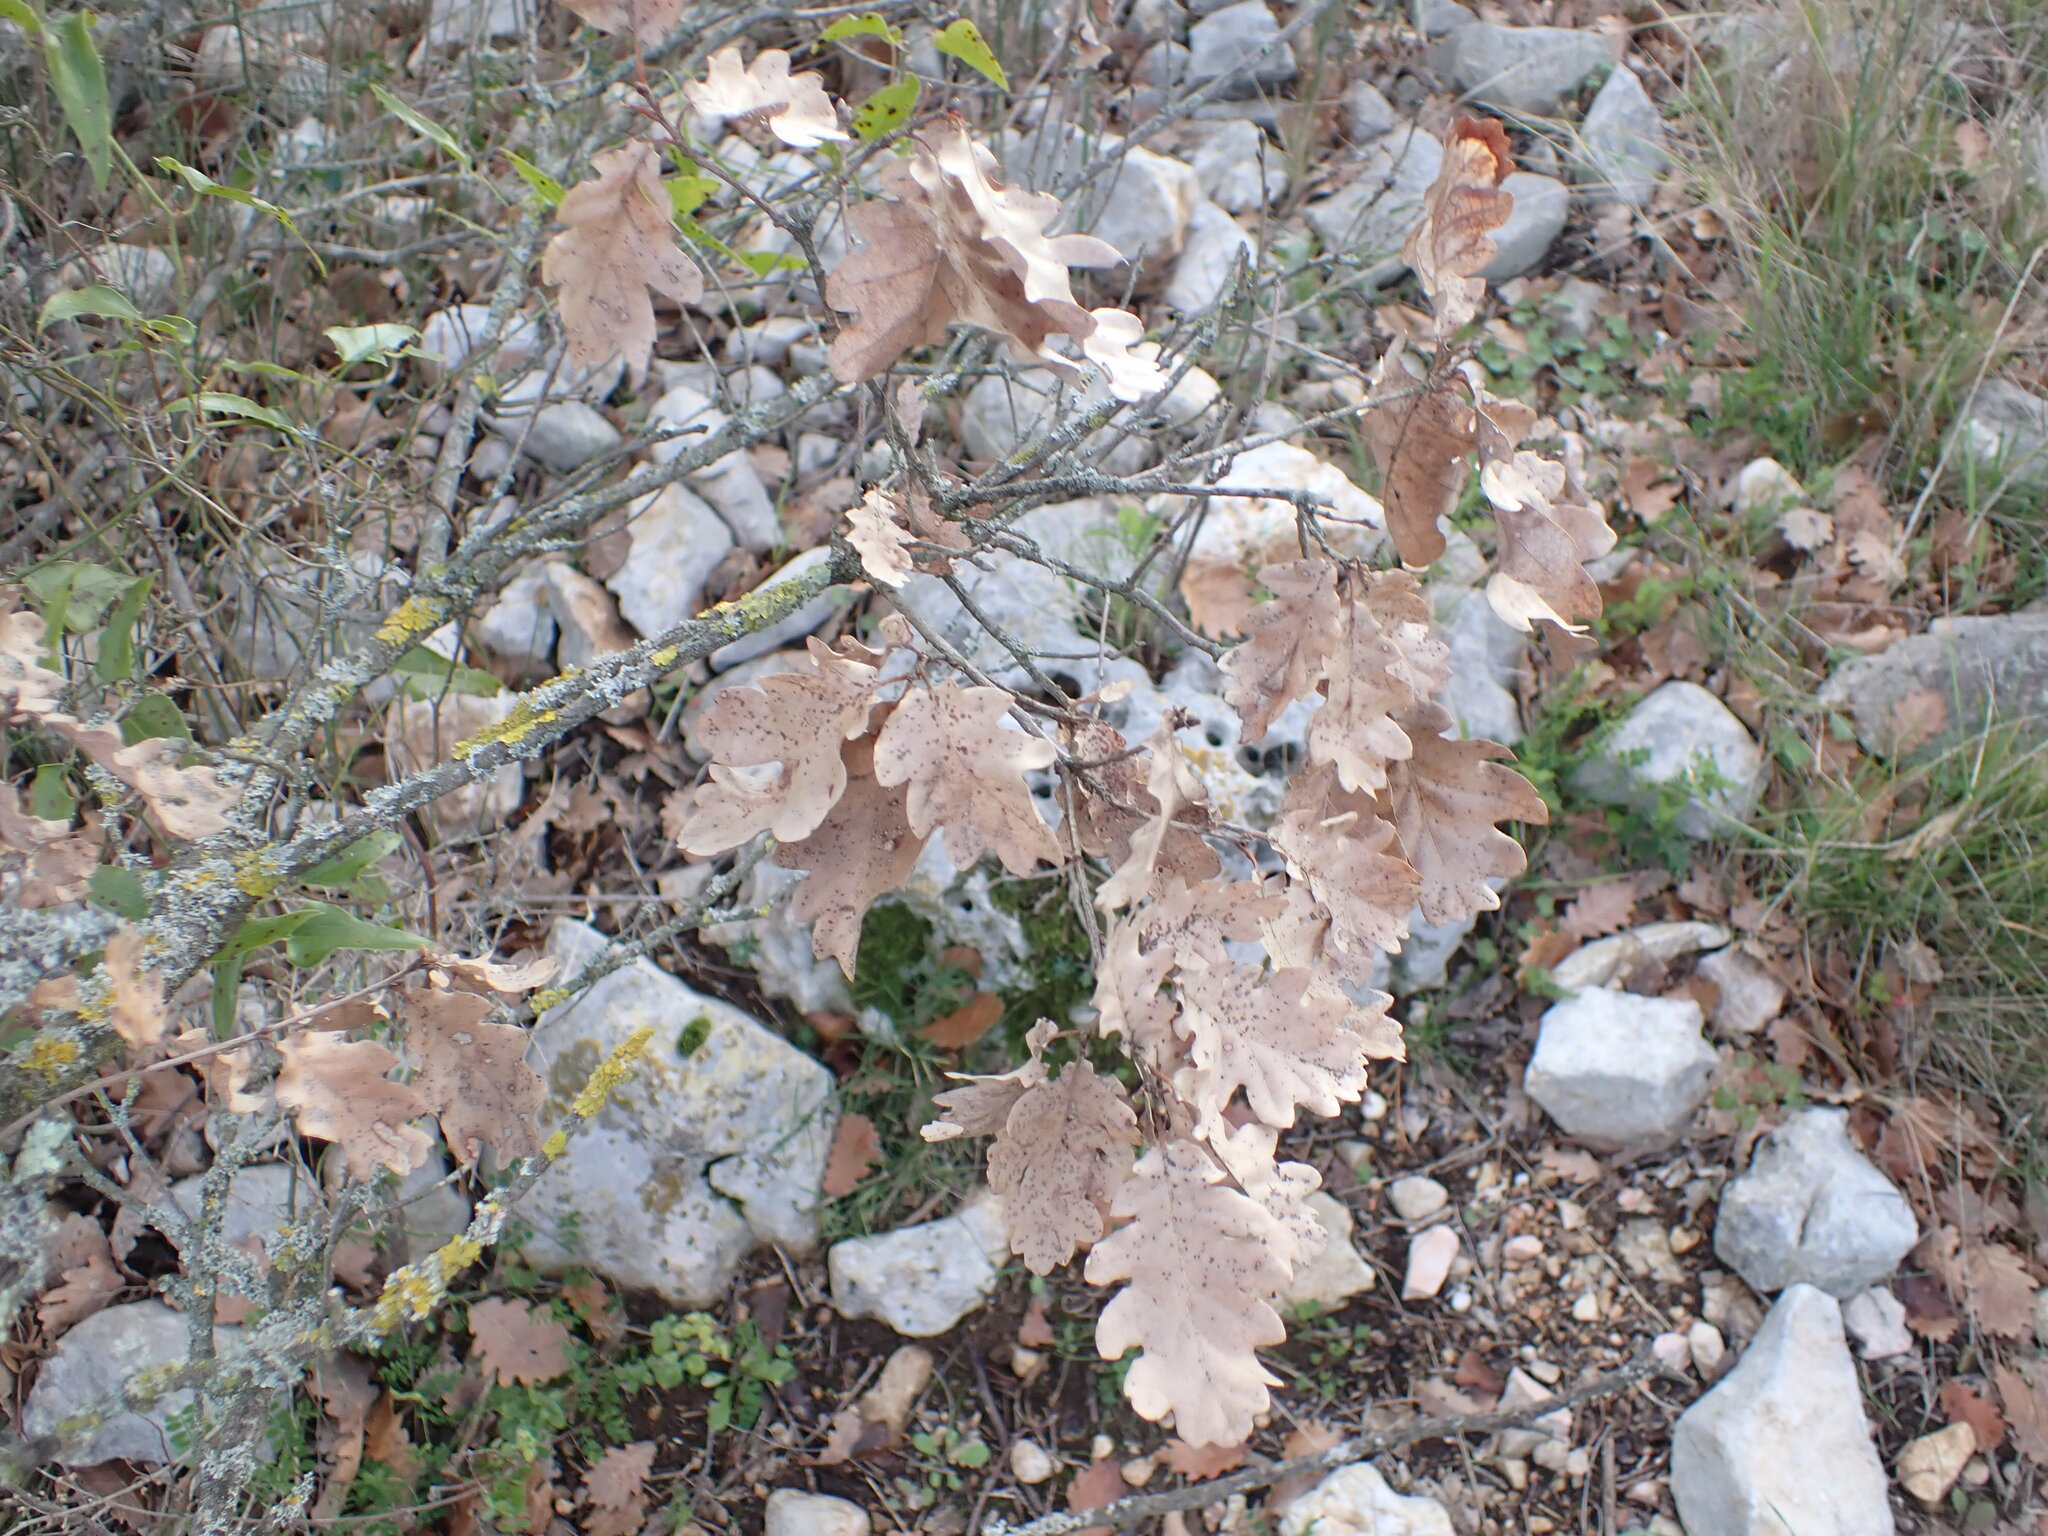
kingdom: Plantae
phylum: Tracheophyta
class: Magnoliopsida
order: Fagales
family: Fagaceae
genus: Quercus
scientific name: Quercus pubescens
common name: Downy oak
